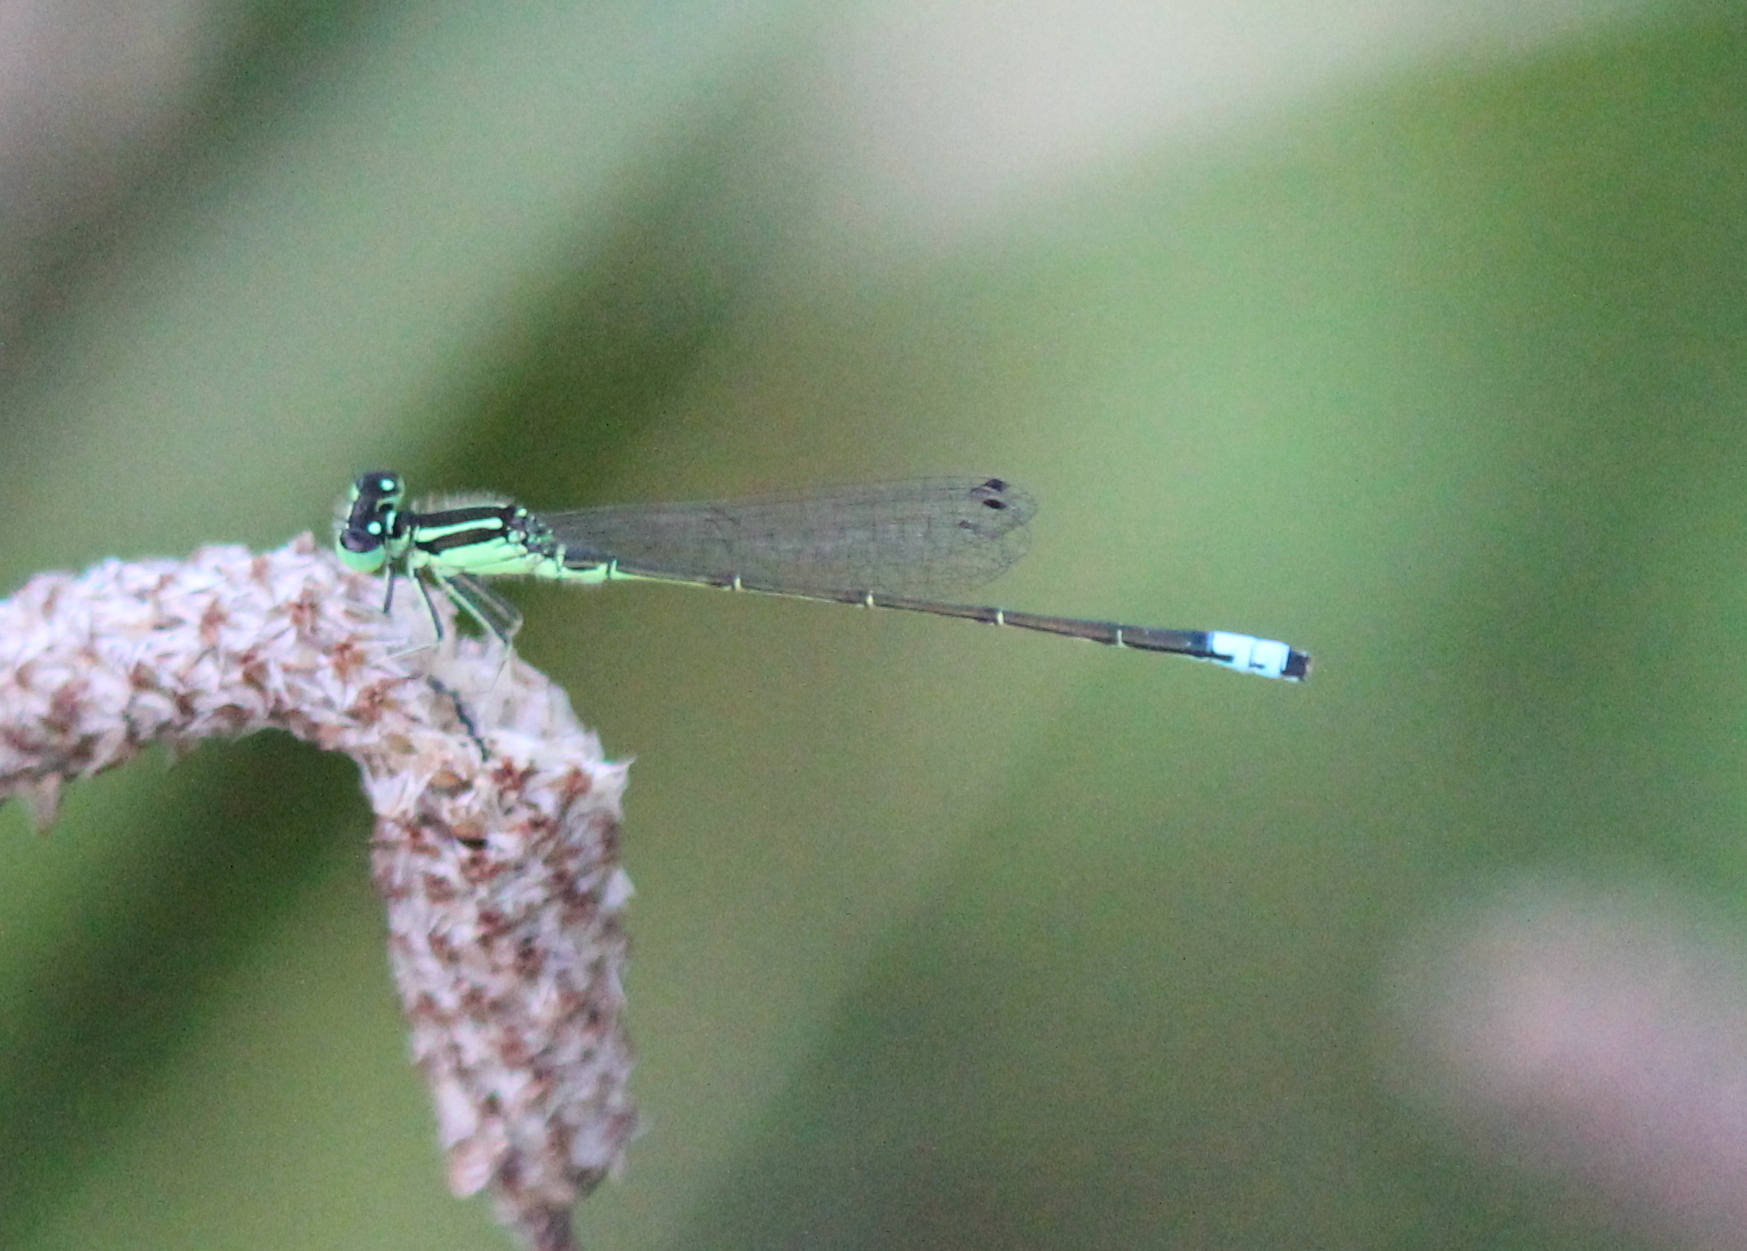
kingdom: Animalia
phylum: Arthropoda
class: Insecta
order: Odonata
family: Coenagrionidae
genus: Ischnura
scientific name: Ischnura verticalis
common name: Eastern forktail
